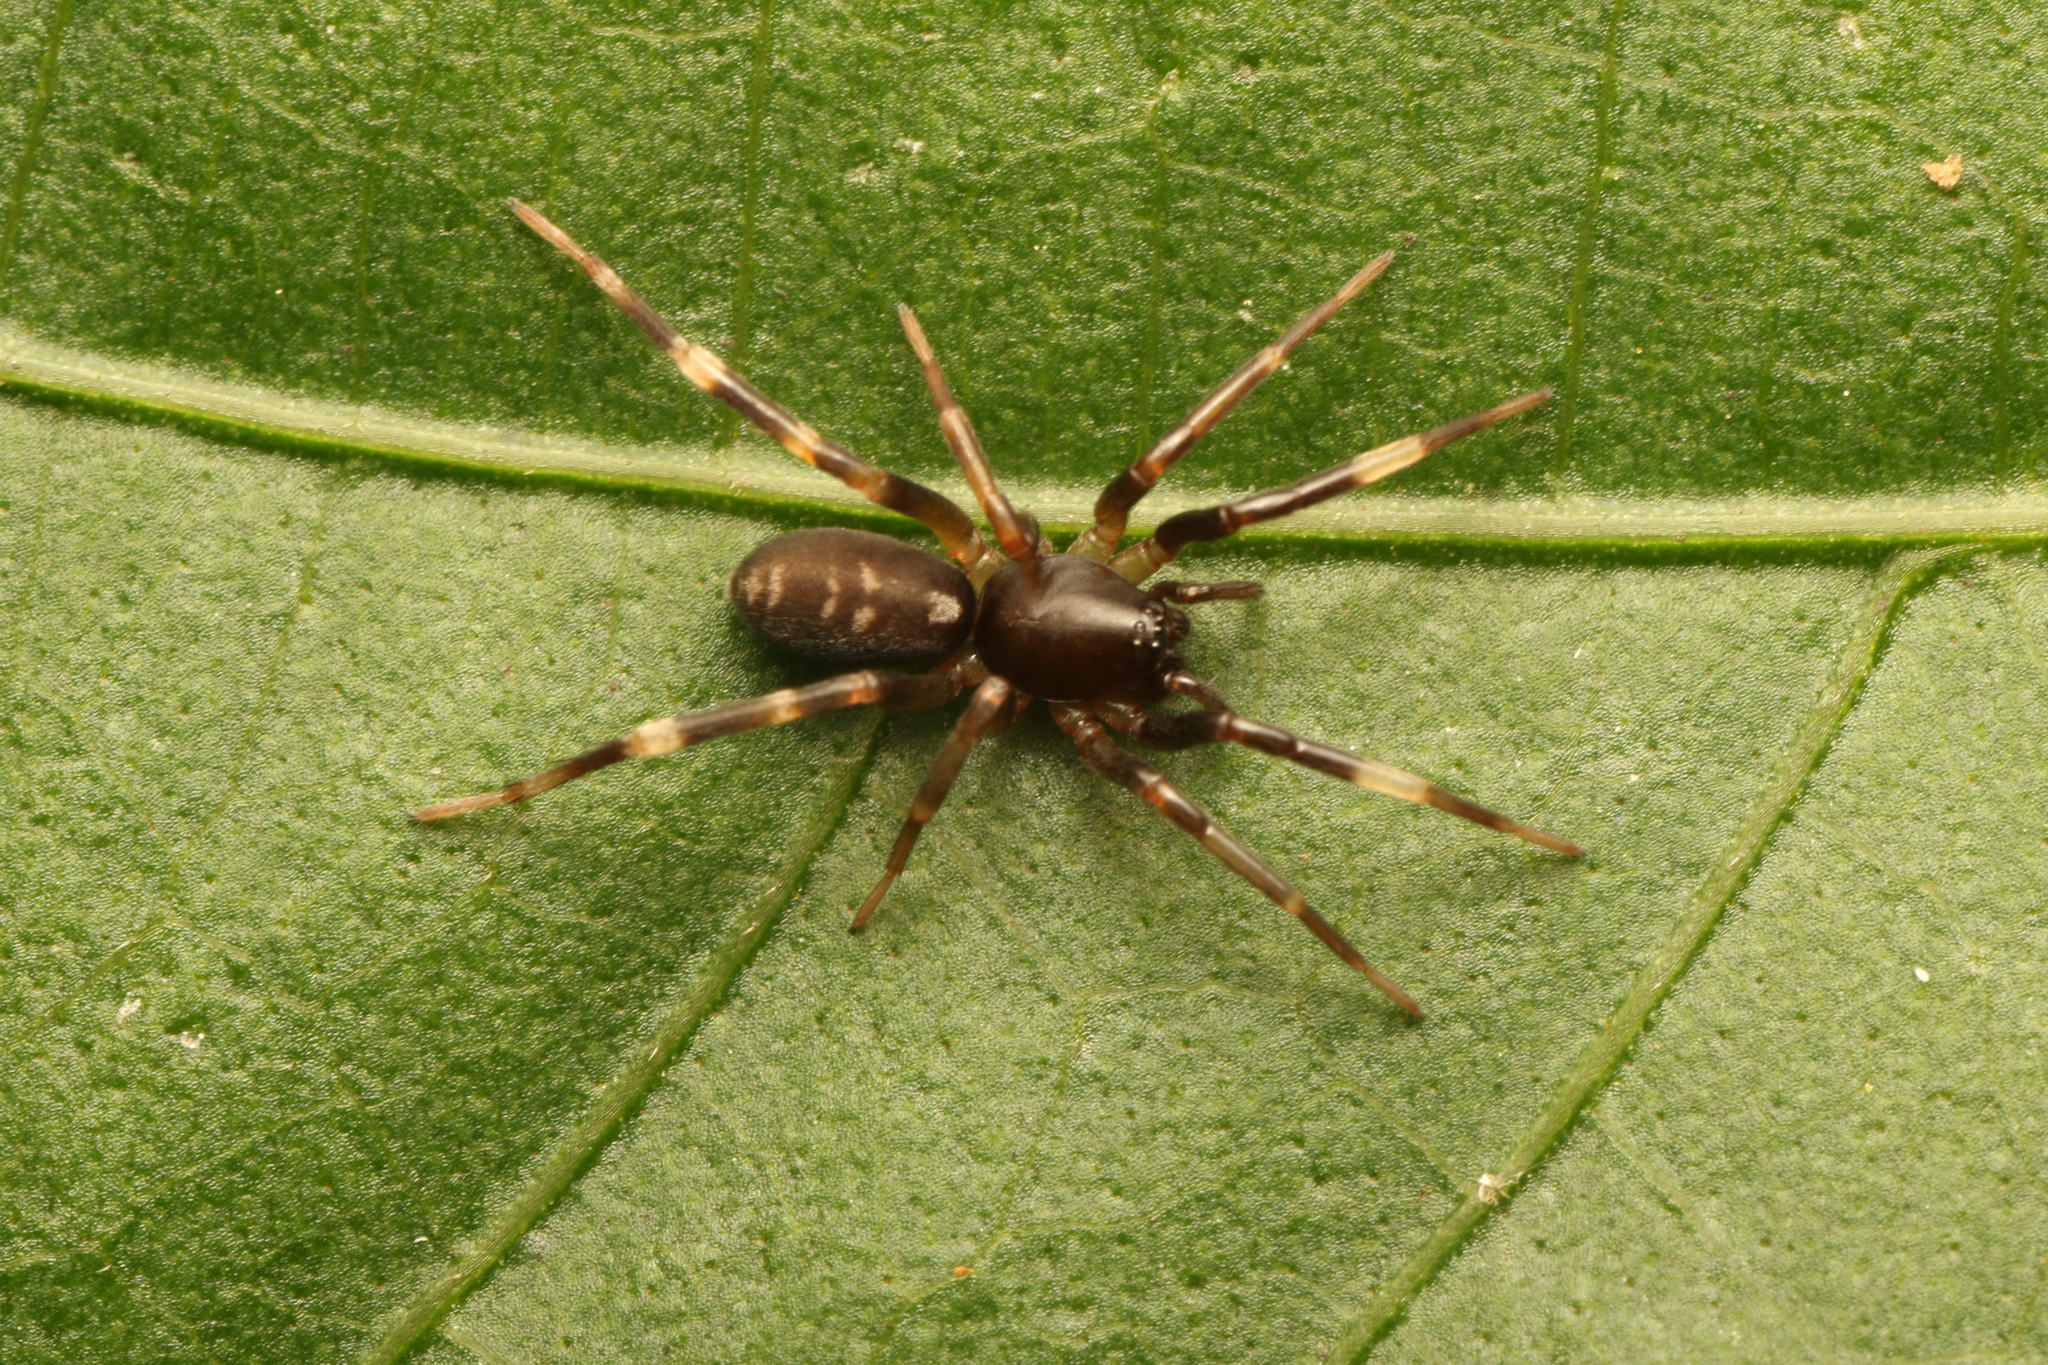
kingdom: Animalia
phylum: Arthropoda
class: Arachnida
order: Araneae
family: Corinnidae
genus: Ianduba
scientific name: Ianduba varia
